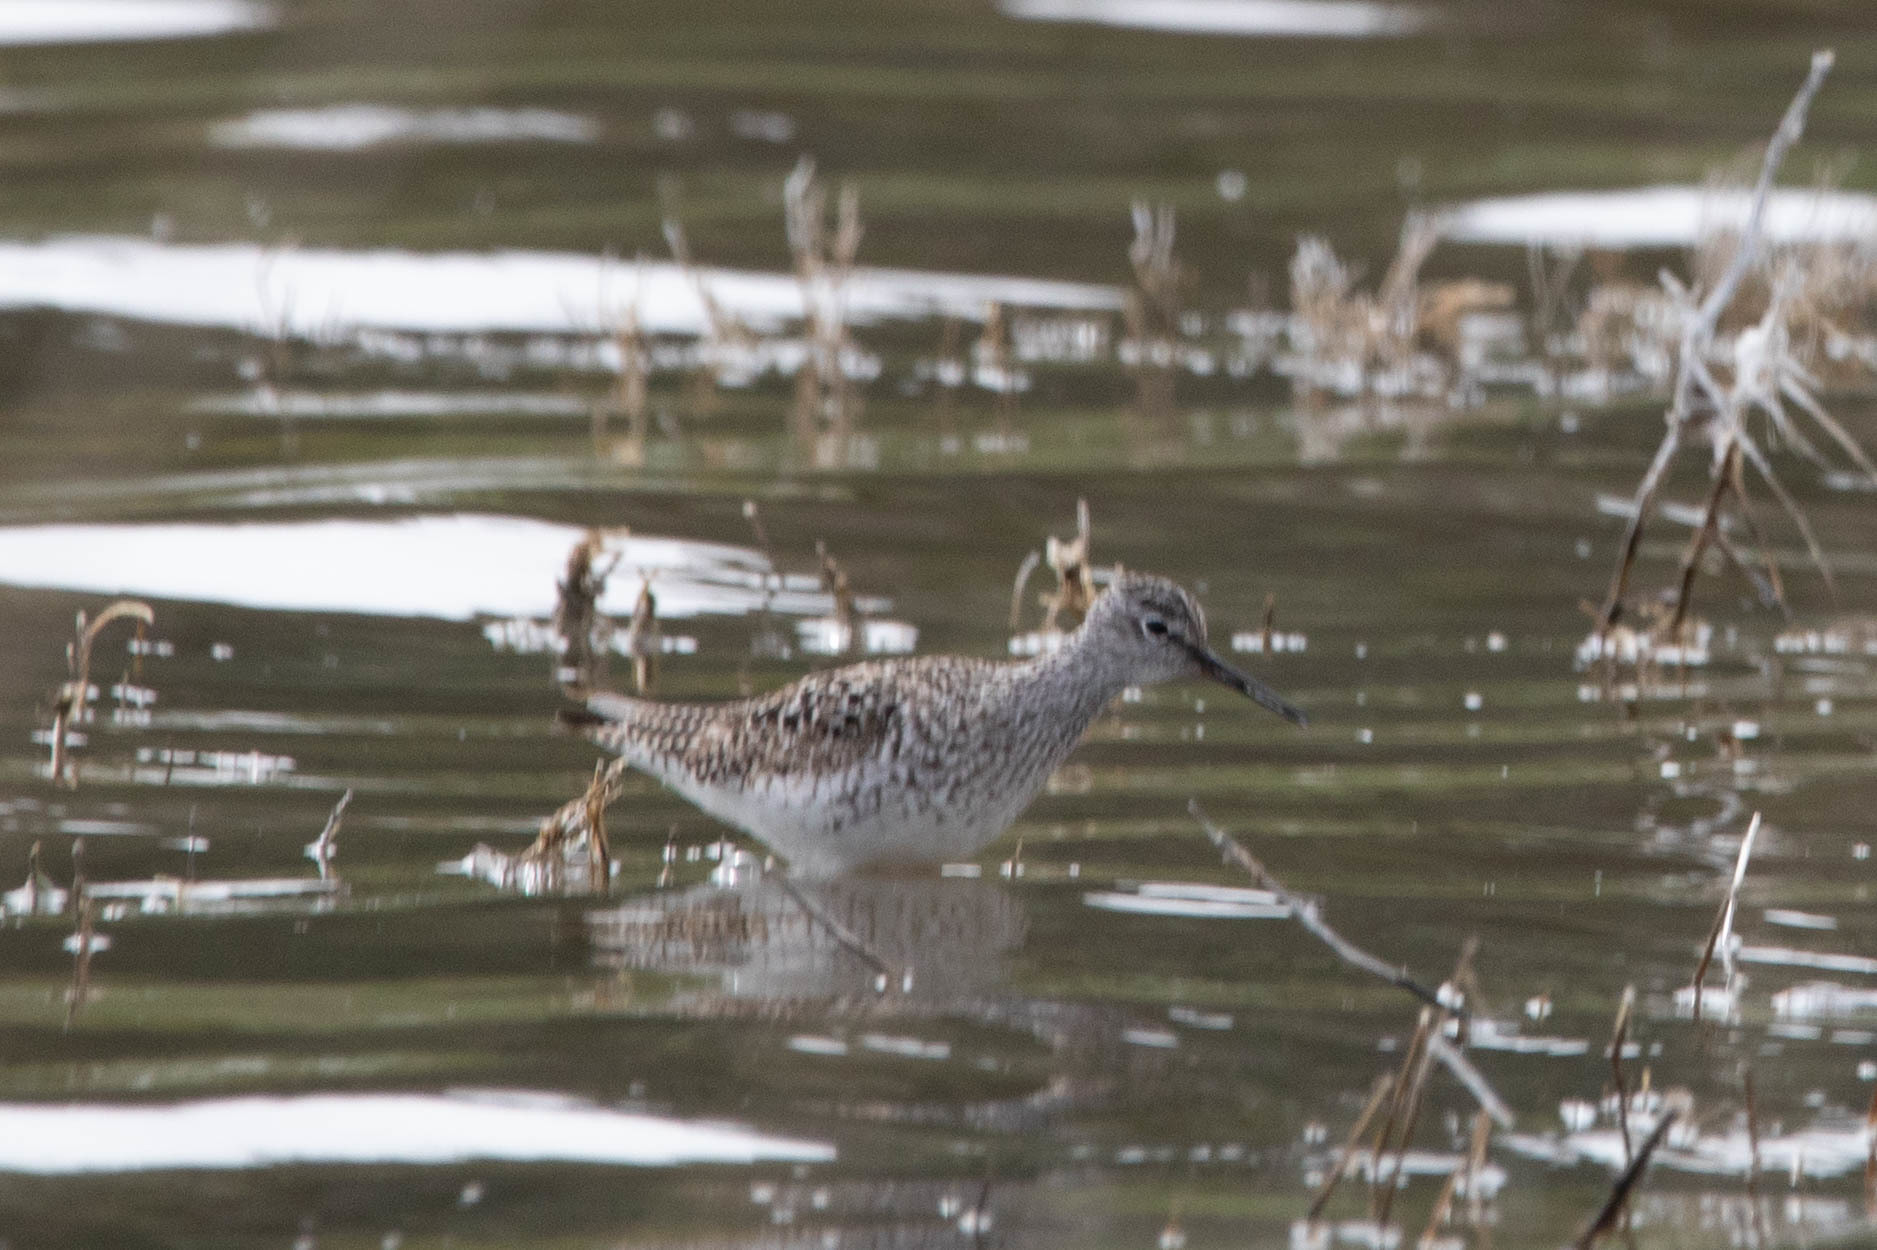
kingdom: Animalia
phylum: Chordata
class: Aves
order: Charadriiformes
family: Scolopacidae
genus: Tringa
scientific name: Tringa flavipes
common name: Lesser yellowlegs
